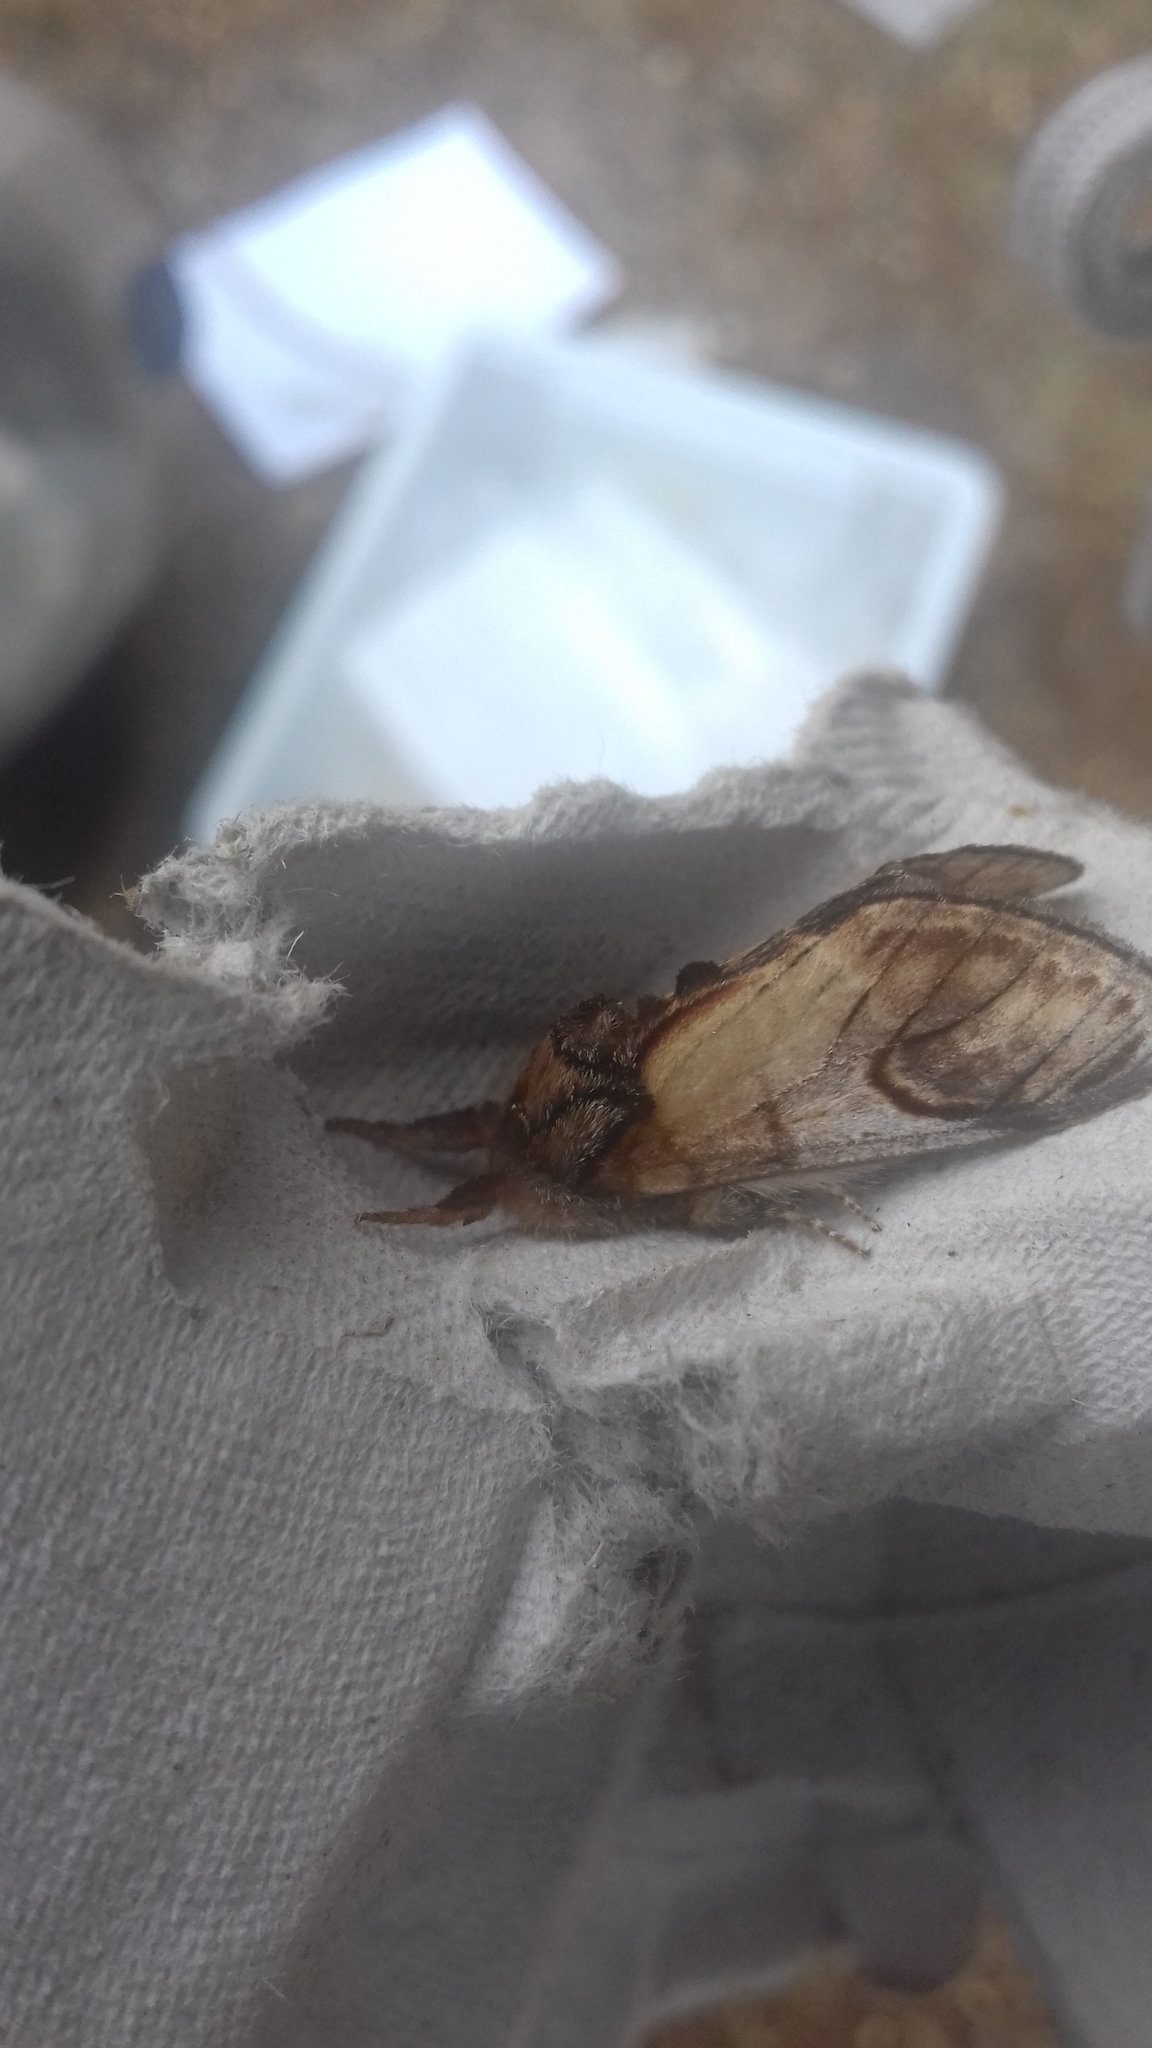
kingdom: Animalia
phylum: Arthropoda
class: Insecta
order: Lepidoptera
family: Notodontidae
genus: Notodonta
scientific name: Notodonta ziczac
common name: Pebble prominent
